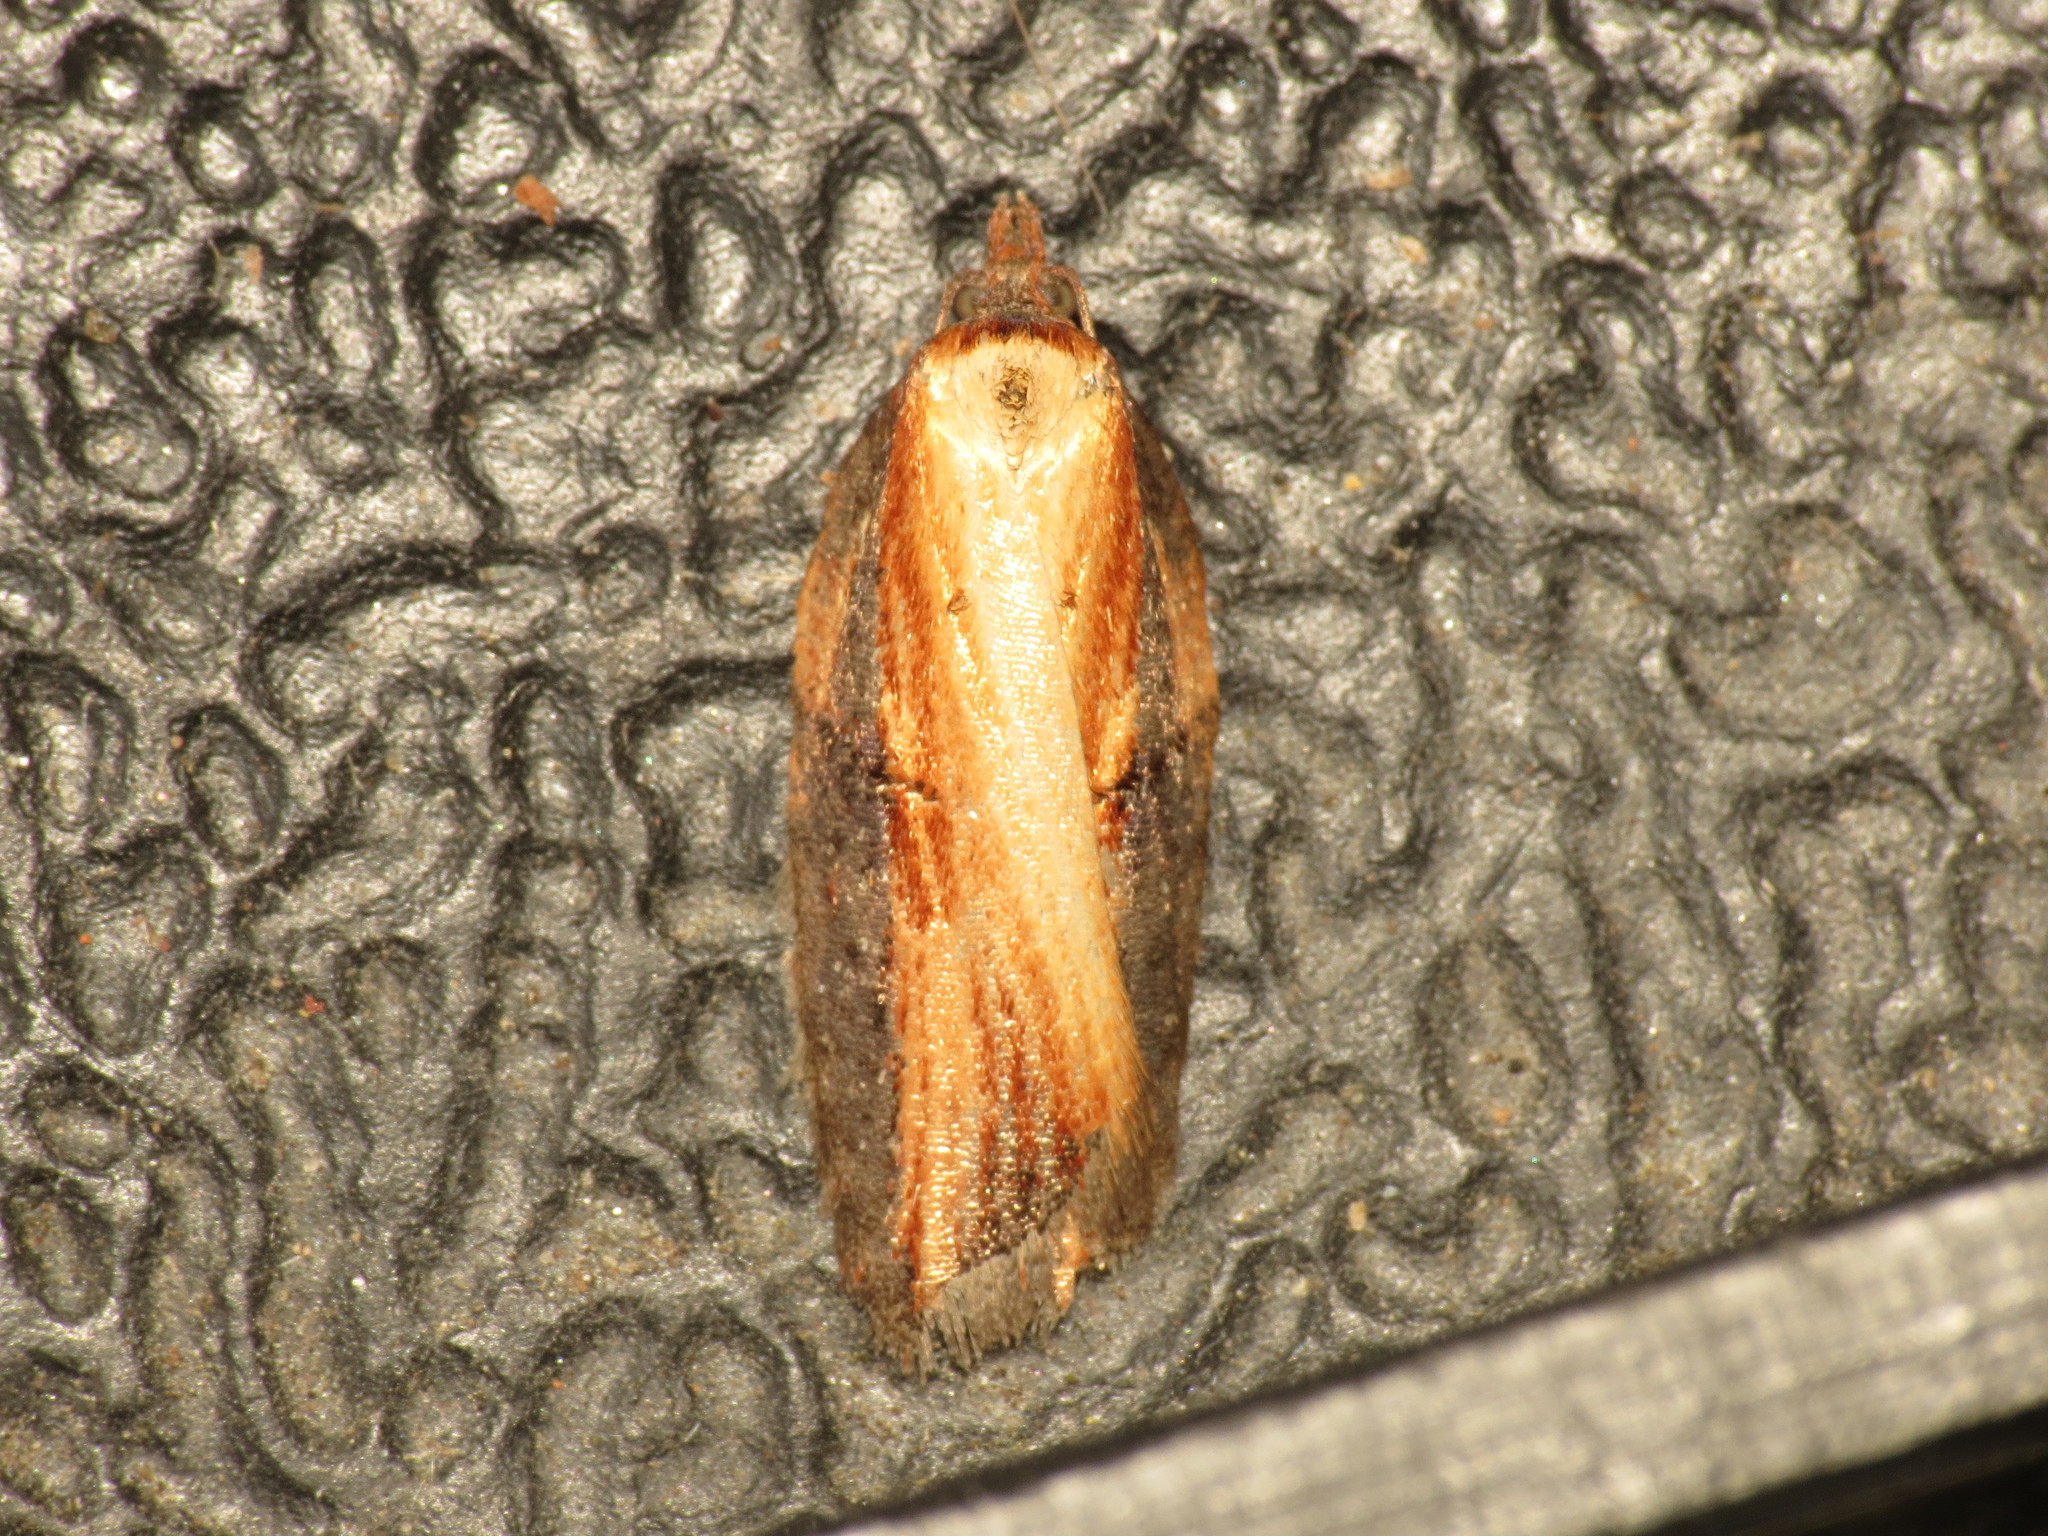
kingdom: Animalia
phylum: Arthropoda
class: Insecta
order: Lepidoptera
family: Tortricidae
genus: Acleris
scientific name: Acleris hastiana
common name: Sallow button
